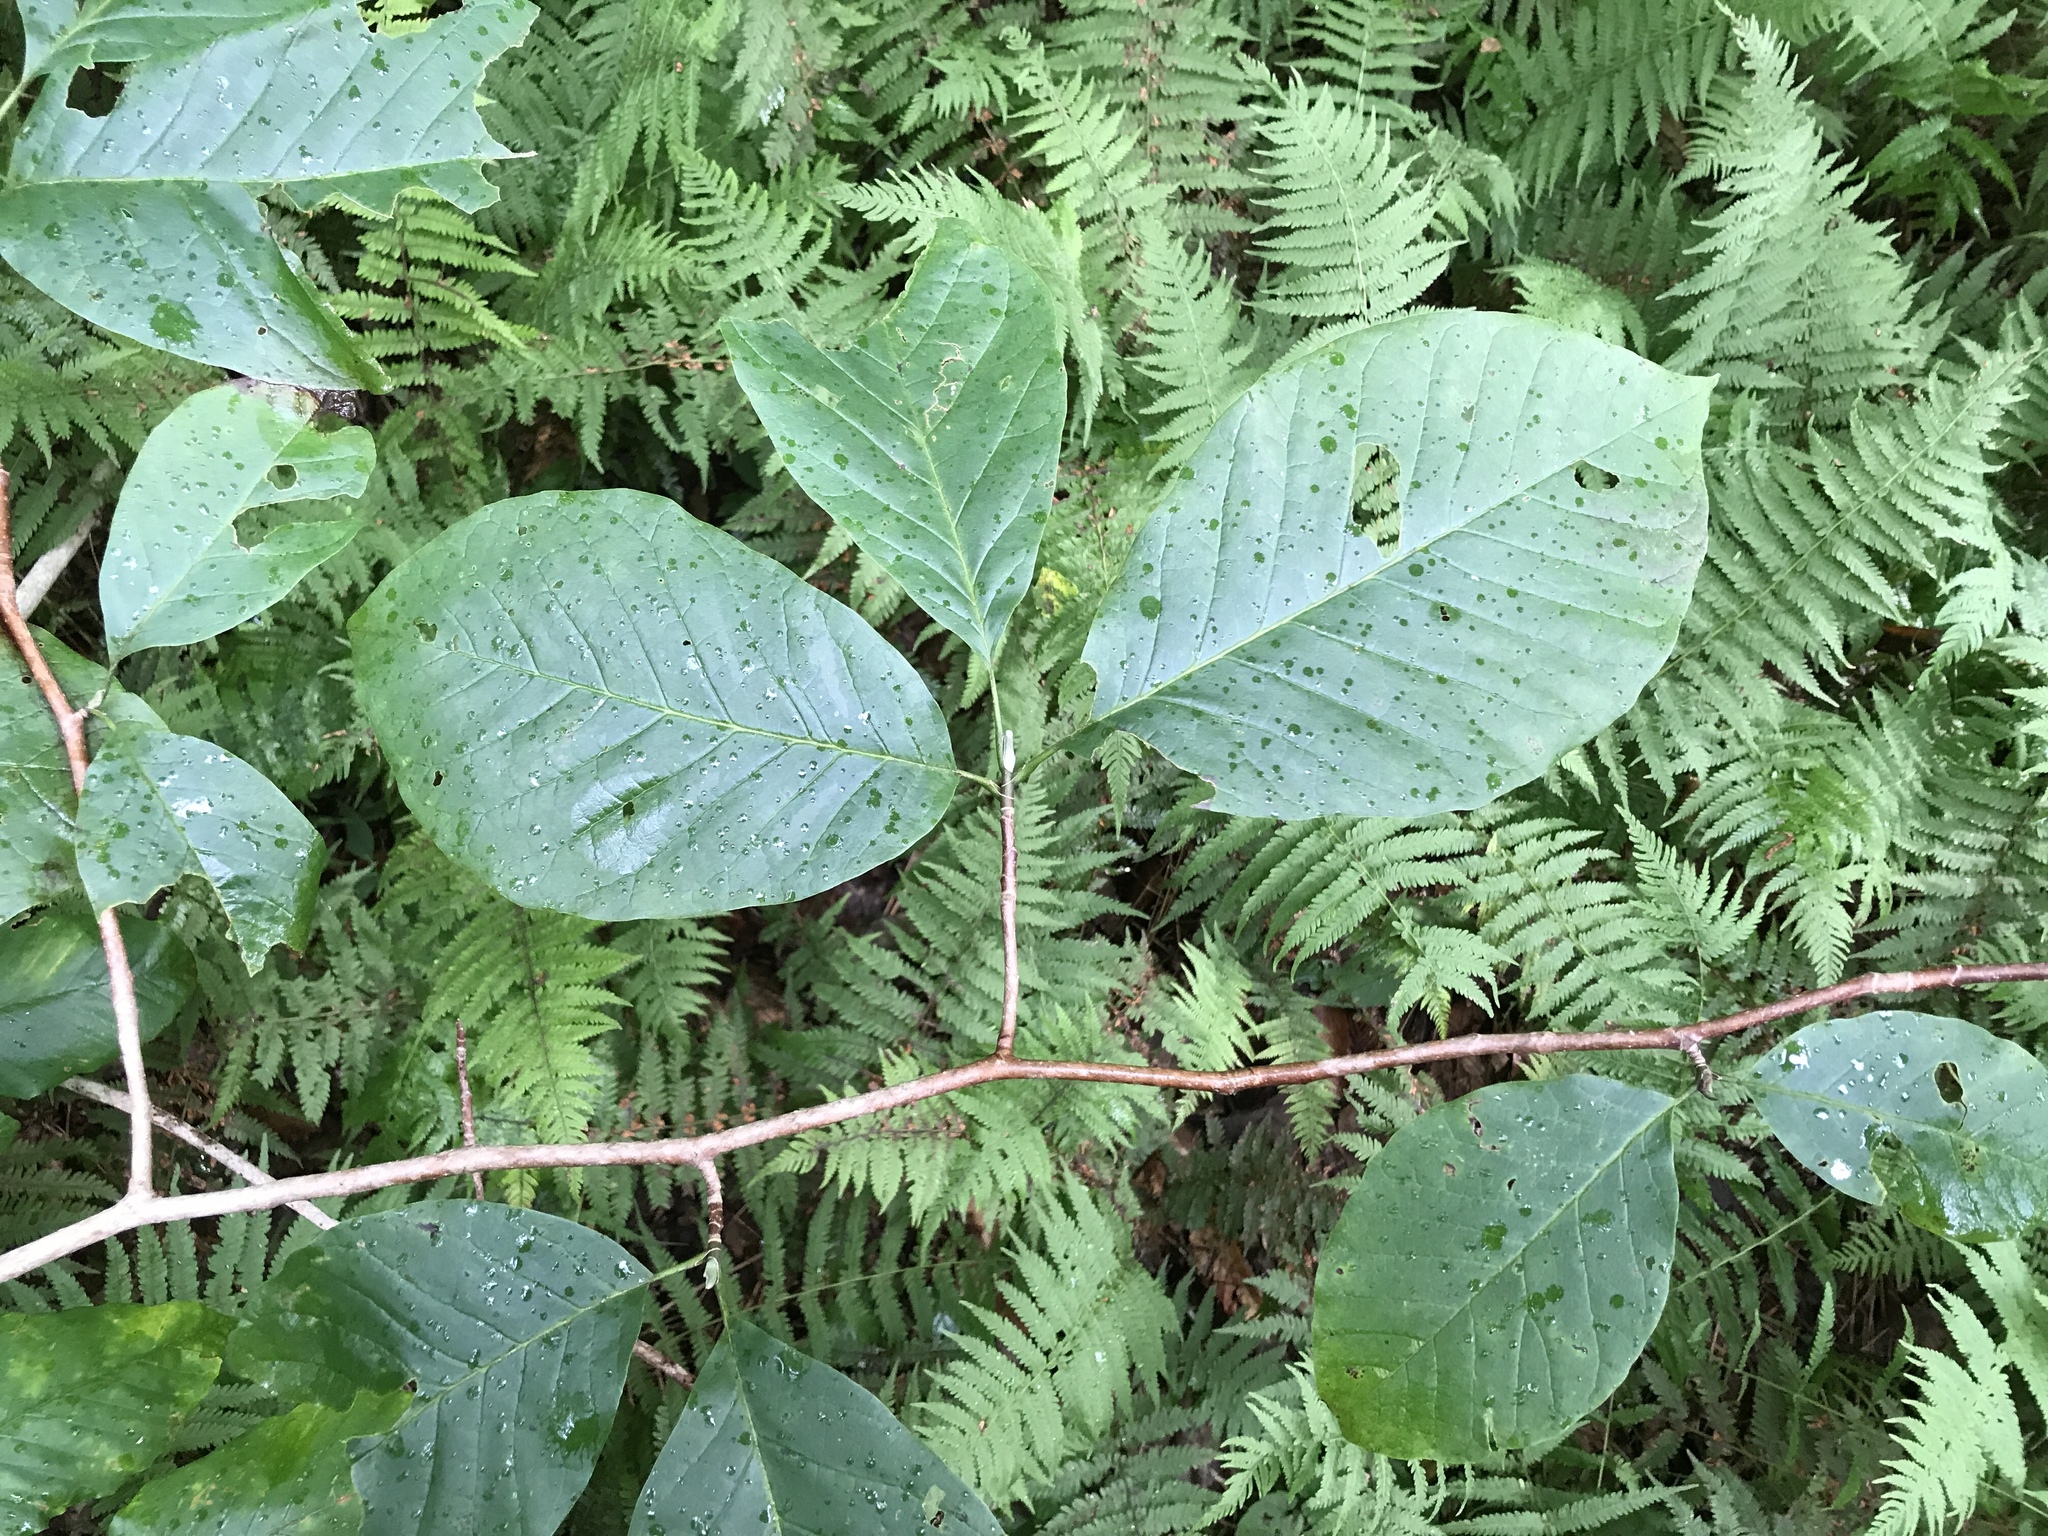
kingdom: Plantae
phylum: Tracheophyta
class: Magnoliopsida
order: Magnoliales
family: Magnoliaceae
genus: Magnolia
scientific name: Magnolia acuminata
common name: Cucumber magnolia
